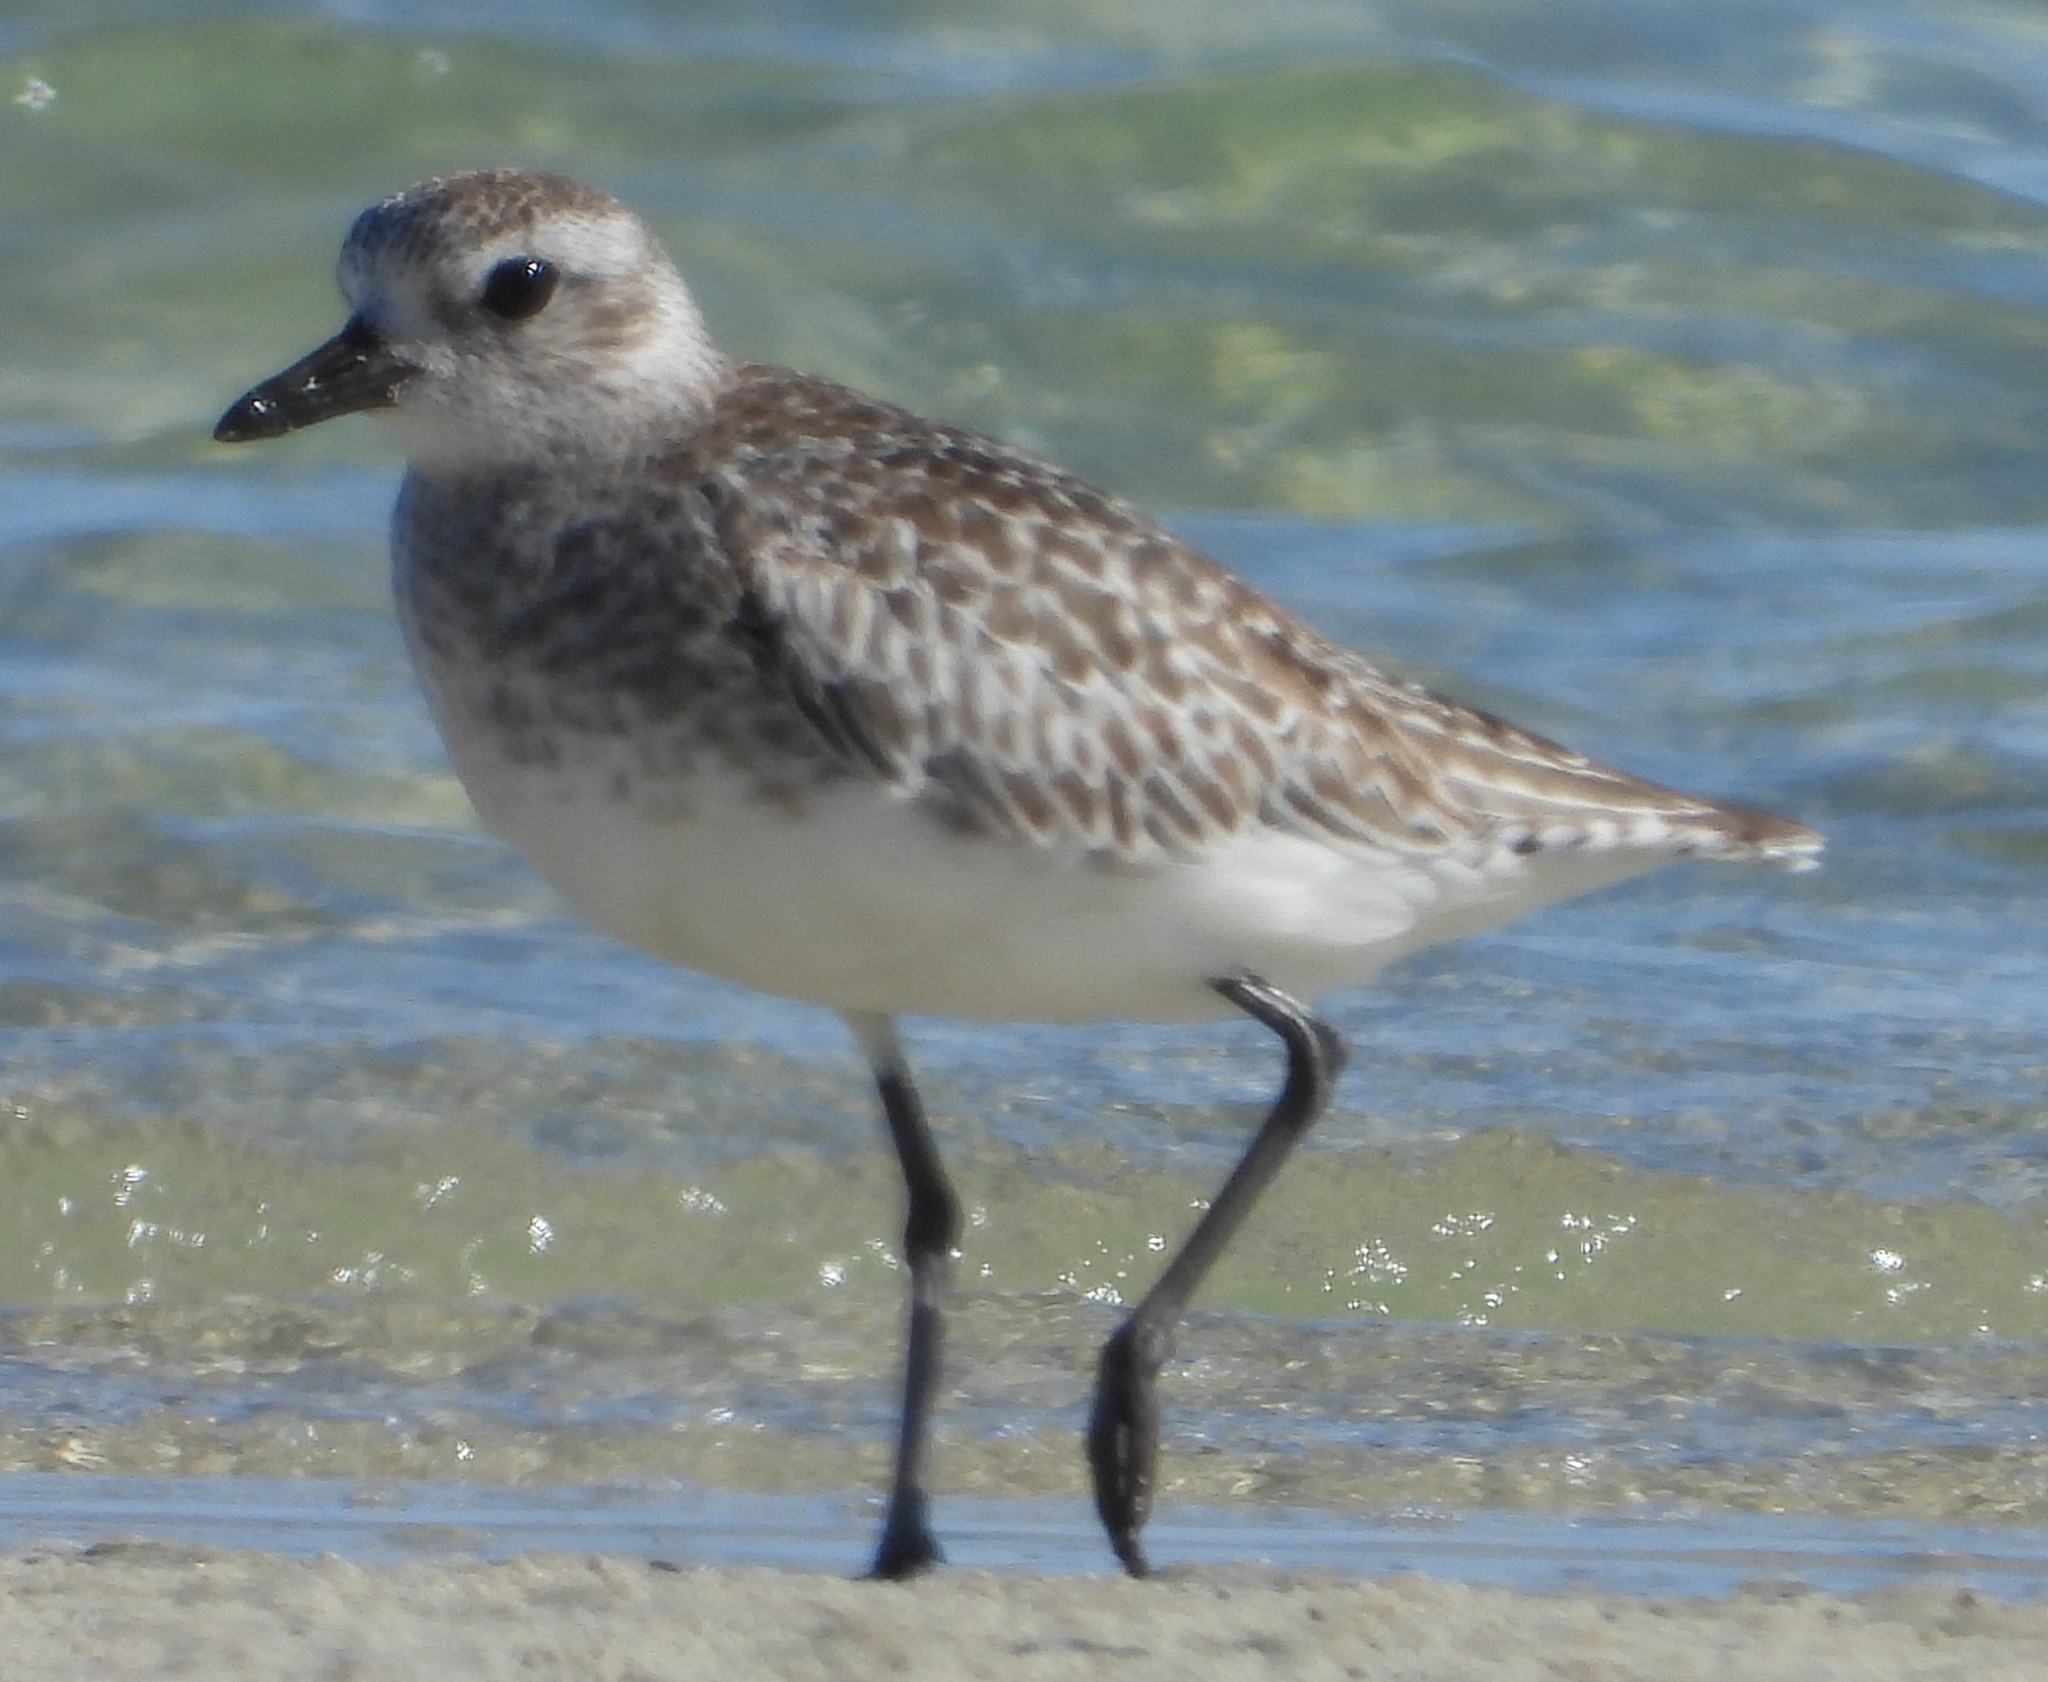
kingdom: Animalia
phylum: Chordata
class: Aves
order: Charadriiformes
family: Charadriidae
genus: Pluvialis
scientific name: Pluvialis squatarola
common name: Grey plover
